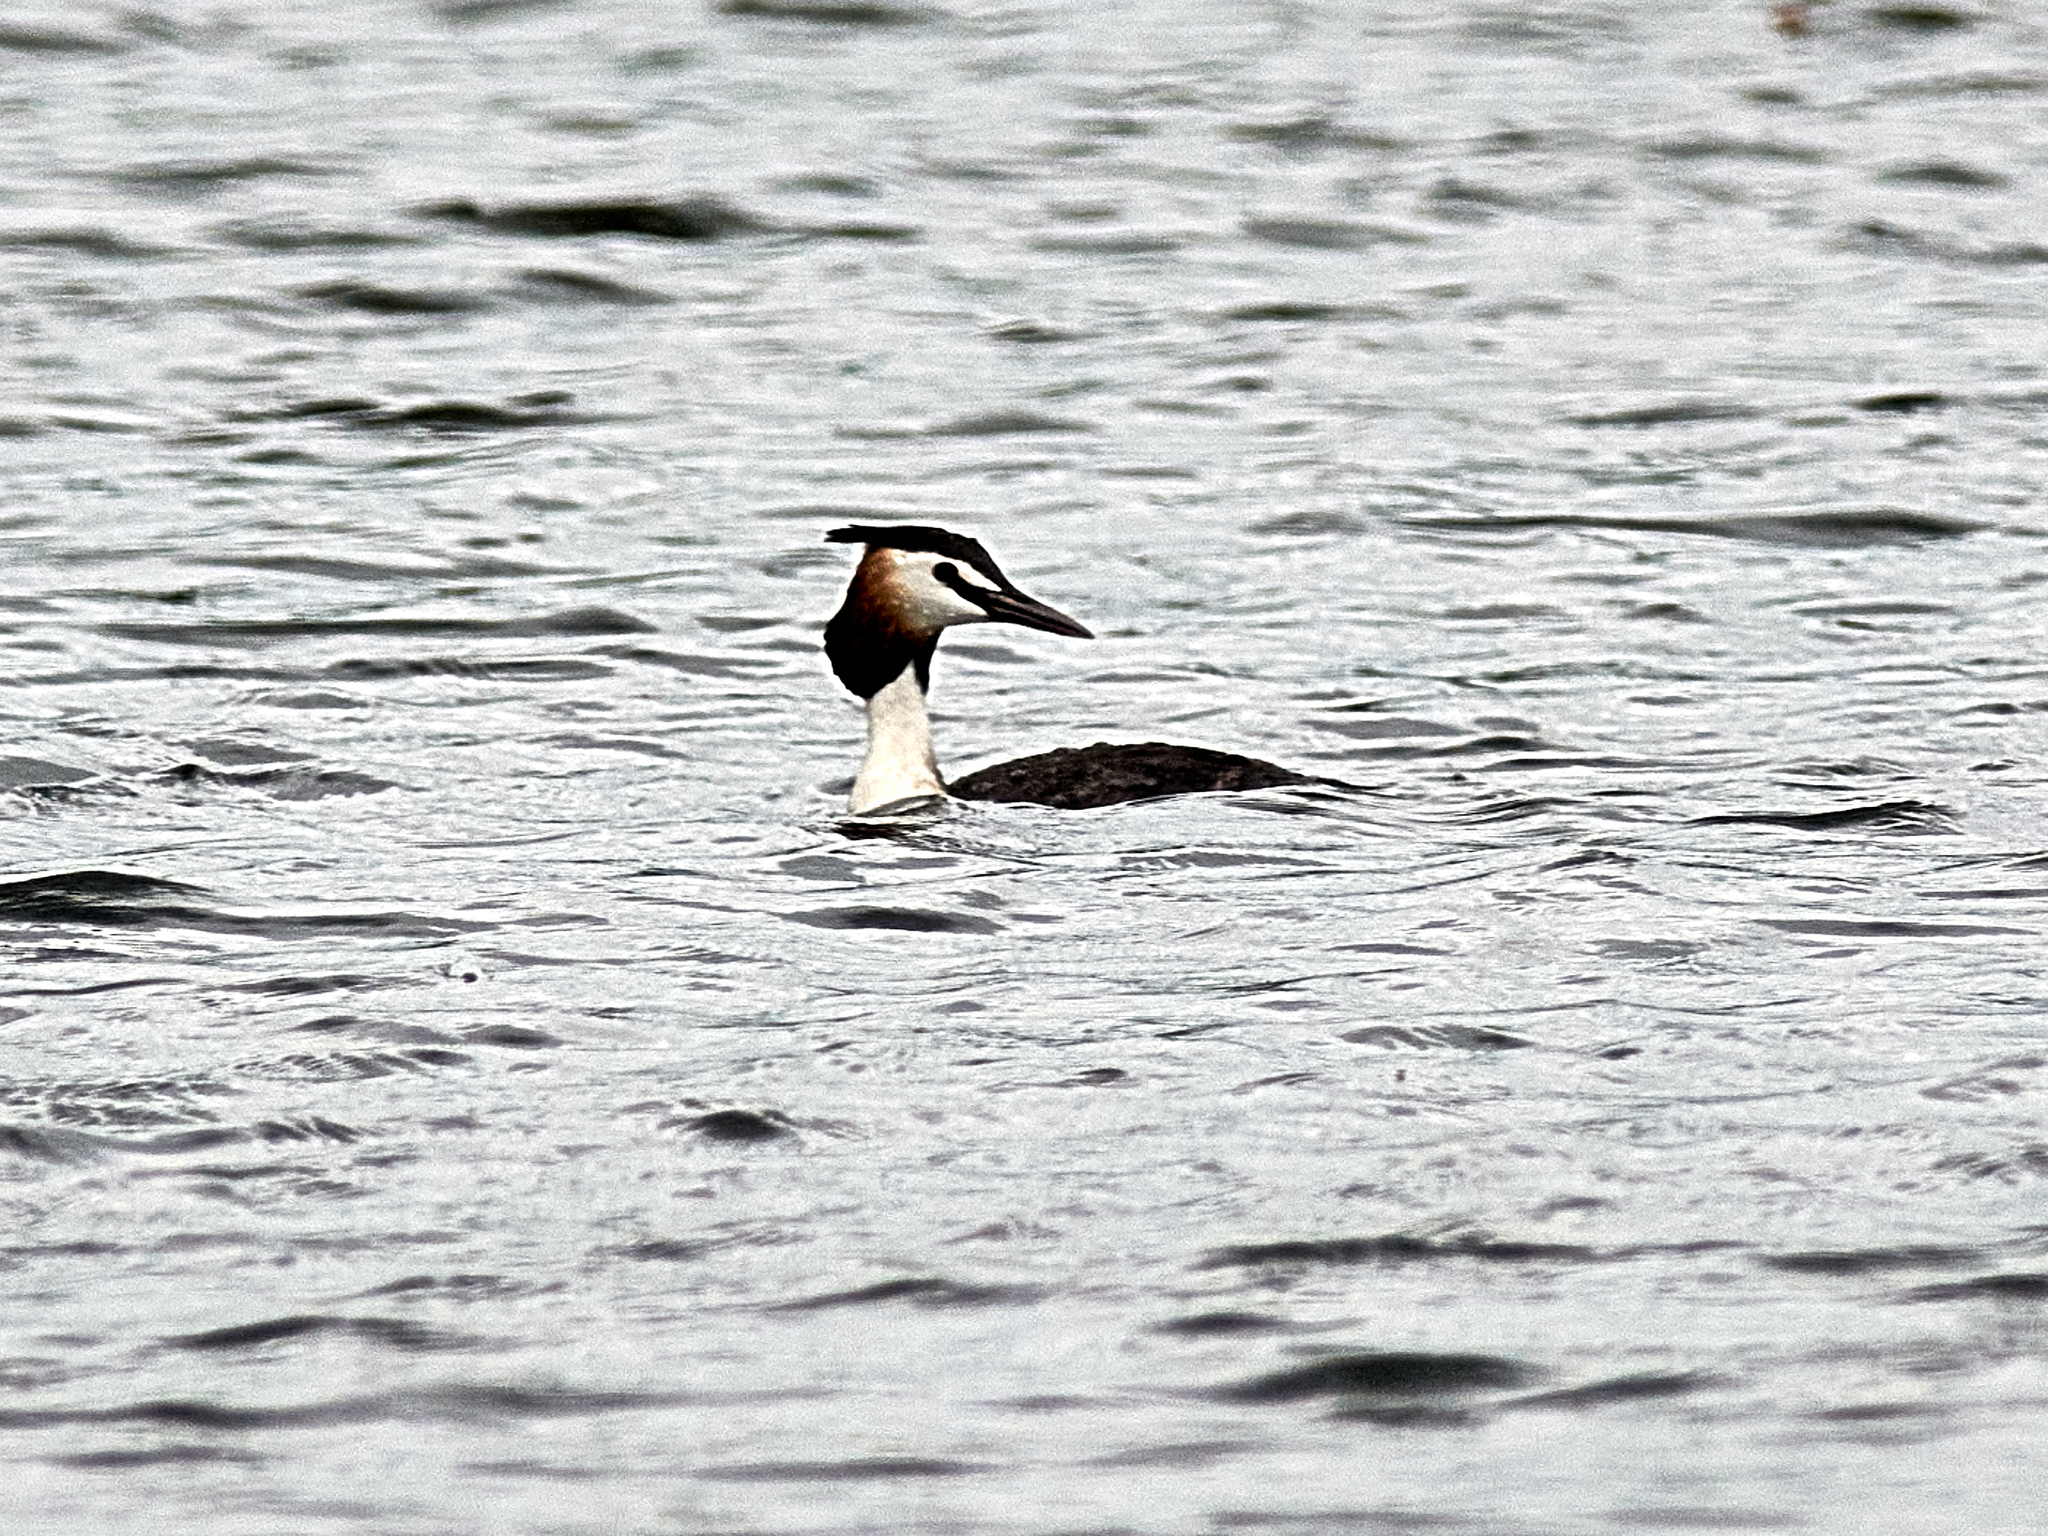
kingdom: Animalia
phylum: Chordata
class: Aves
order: Podicipediformes
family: Podicipedidae
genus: Podiceps
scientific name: Podiceps cristatus
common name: Great crested grebe
